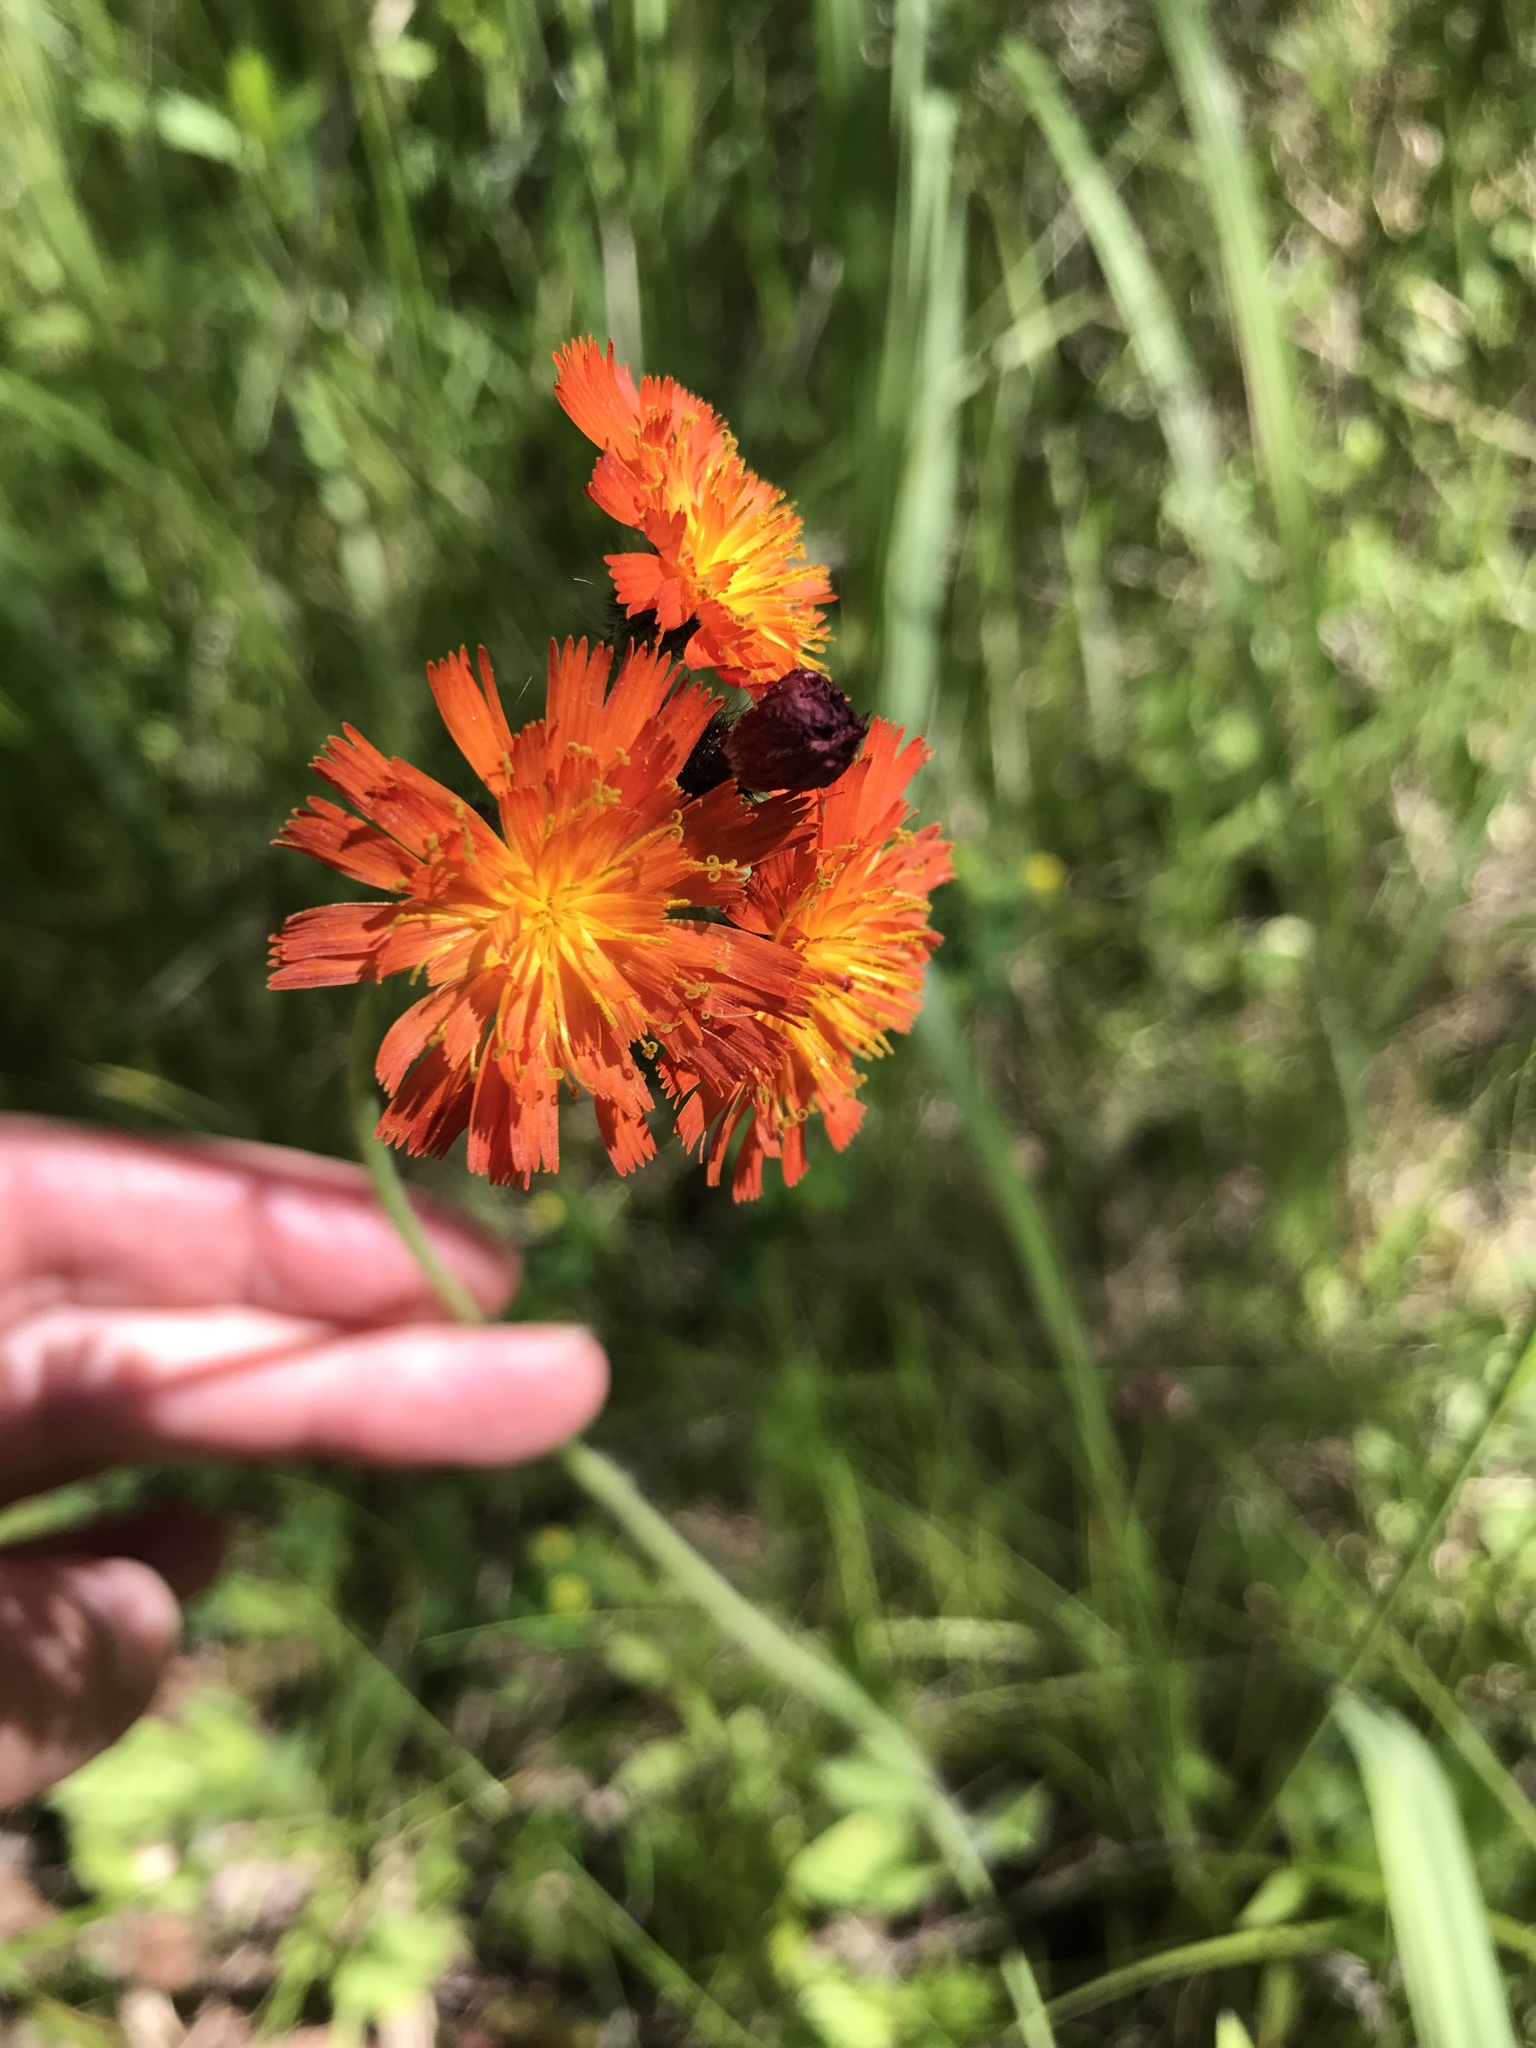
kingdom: Plantae
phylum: Tracheophyta
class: Magnoliopsida
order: Asterales
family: Asteraceae
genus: Pilosella
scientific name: Pilosella aurantiaca
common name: Fox-and-cubs
